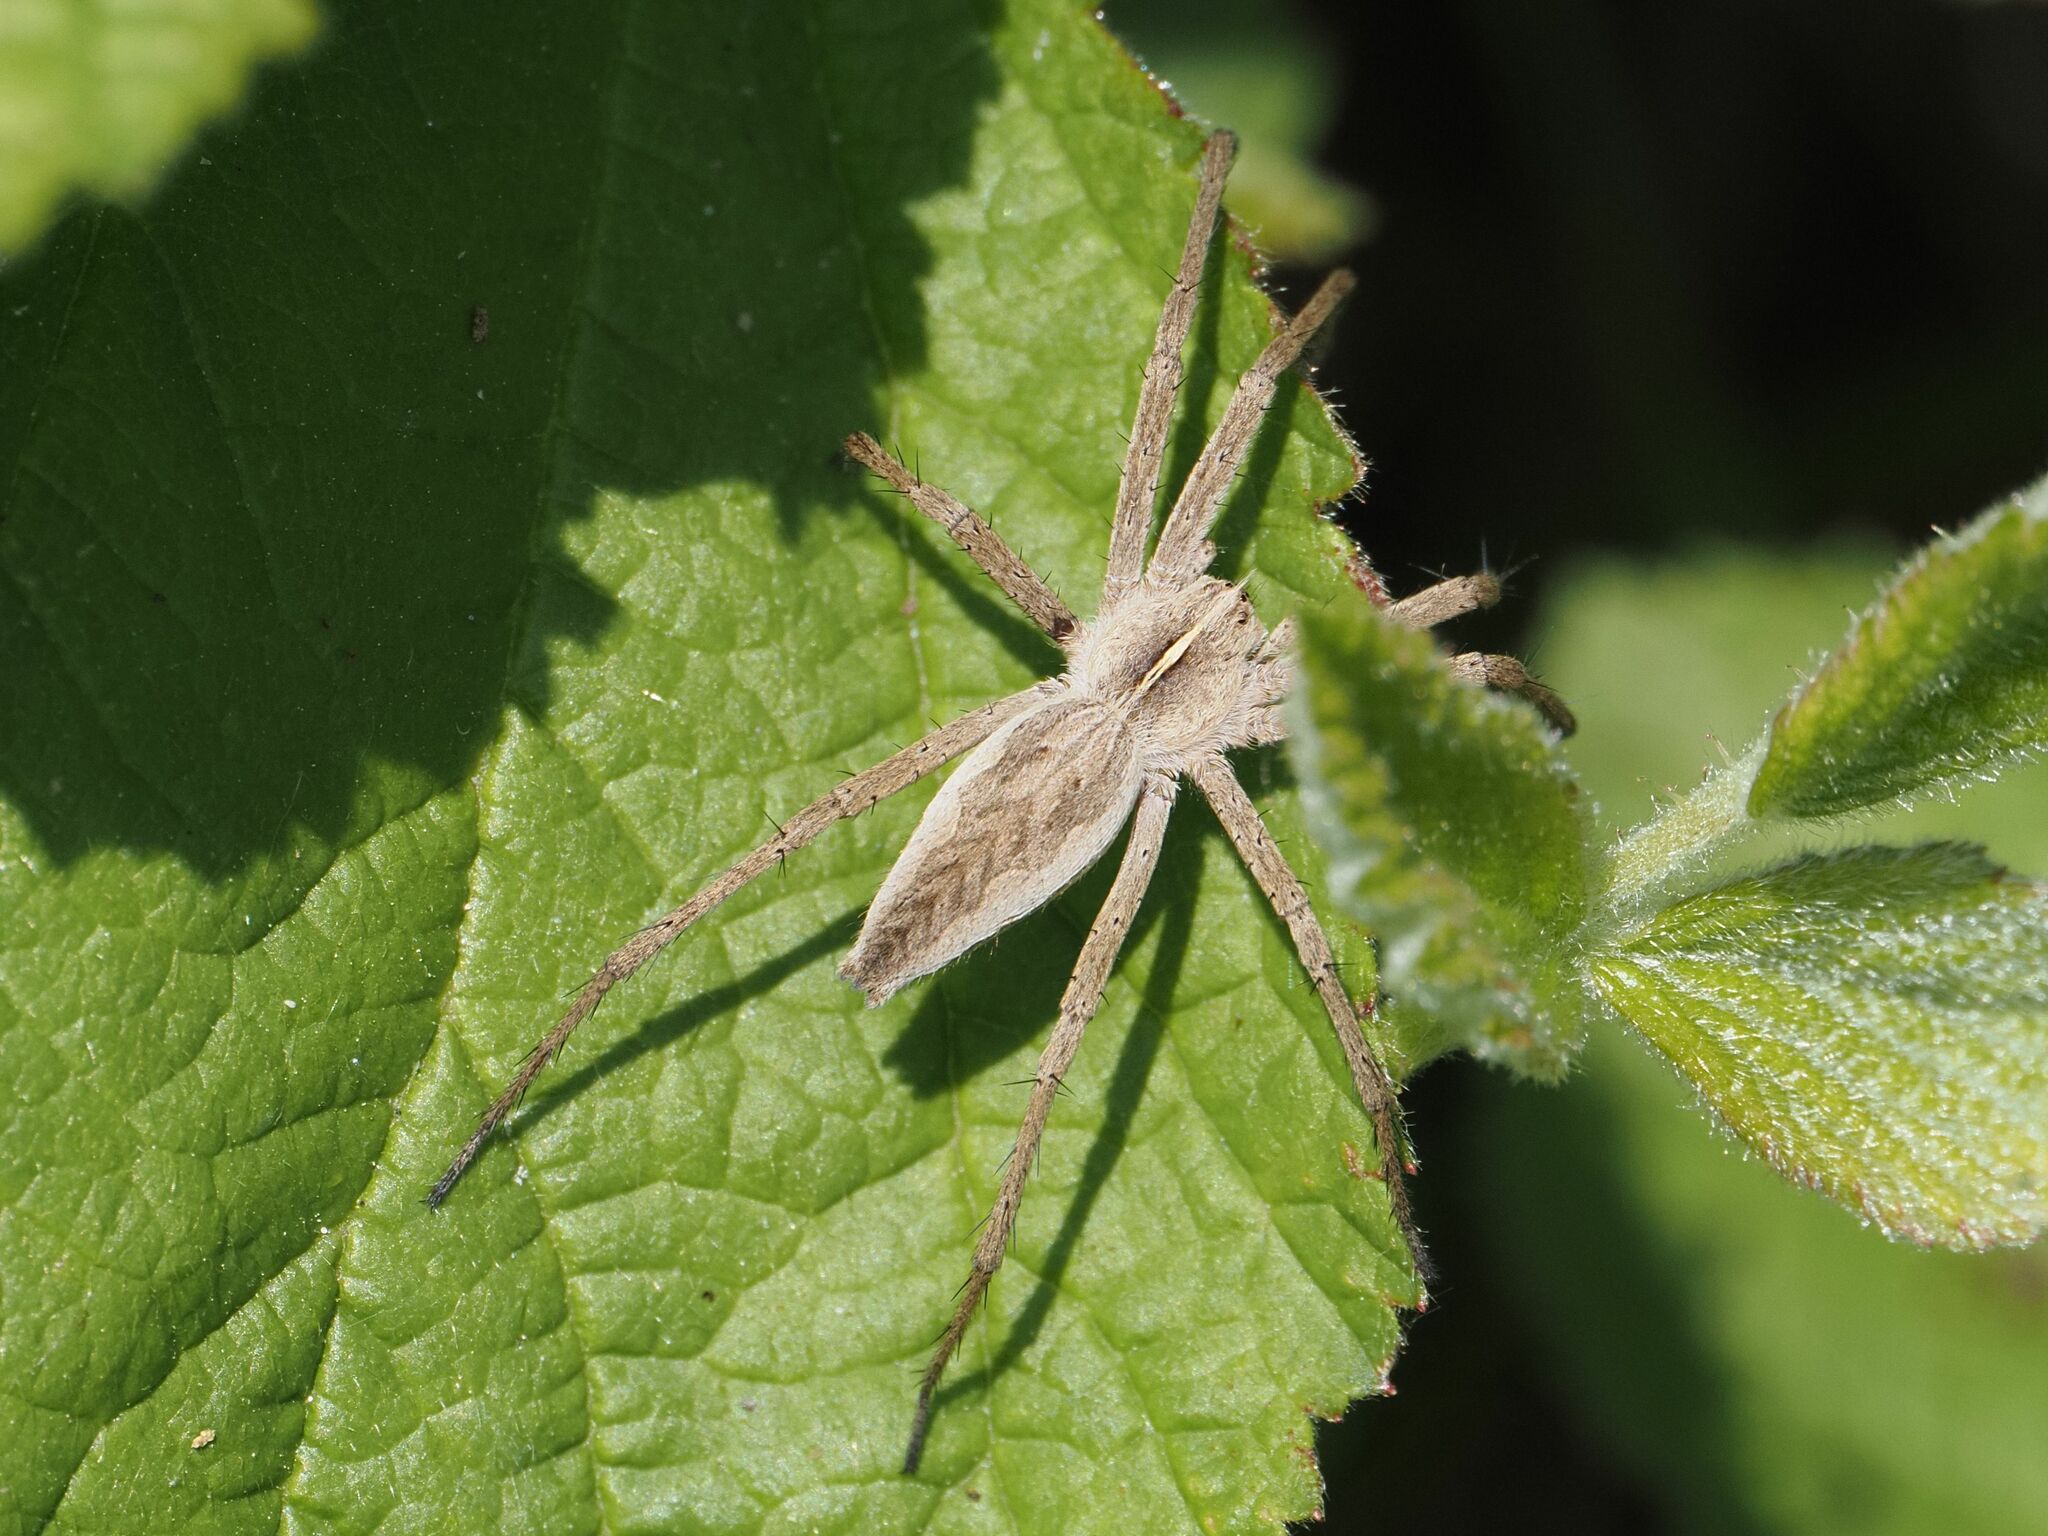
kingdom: Animalia
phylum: Arthropoda
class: Arachnida
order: Araneae
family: Pisauridae
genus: Pisaura
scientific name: Pisaura mirabilis
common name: Tent spider
